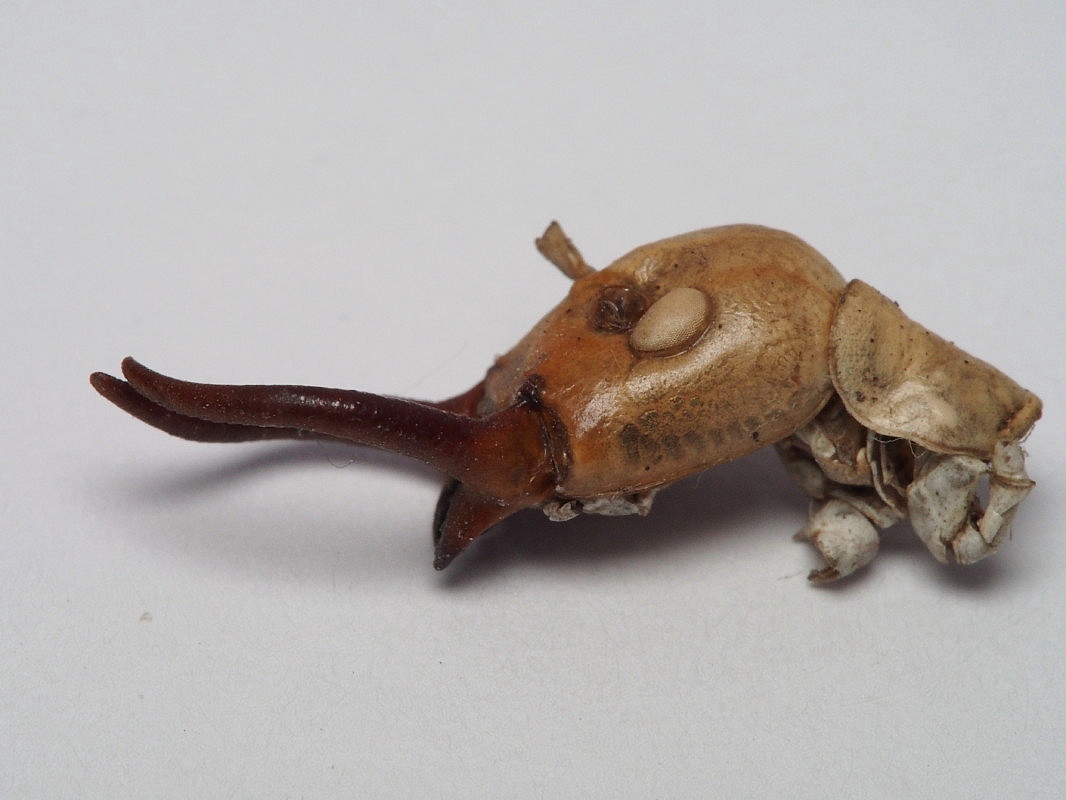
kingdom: Animalia
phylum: Arthropoda
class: Insecta
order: Orthoptera
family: Anostostomatidae
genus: Anisoura
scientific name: Anisoura nicobarica
